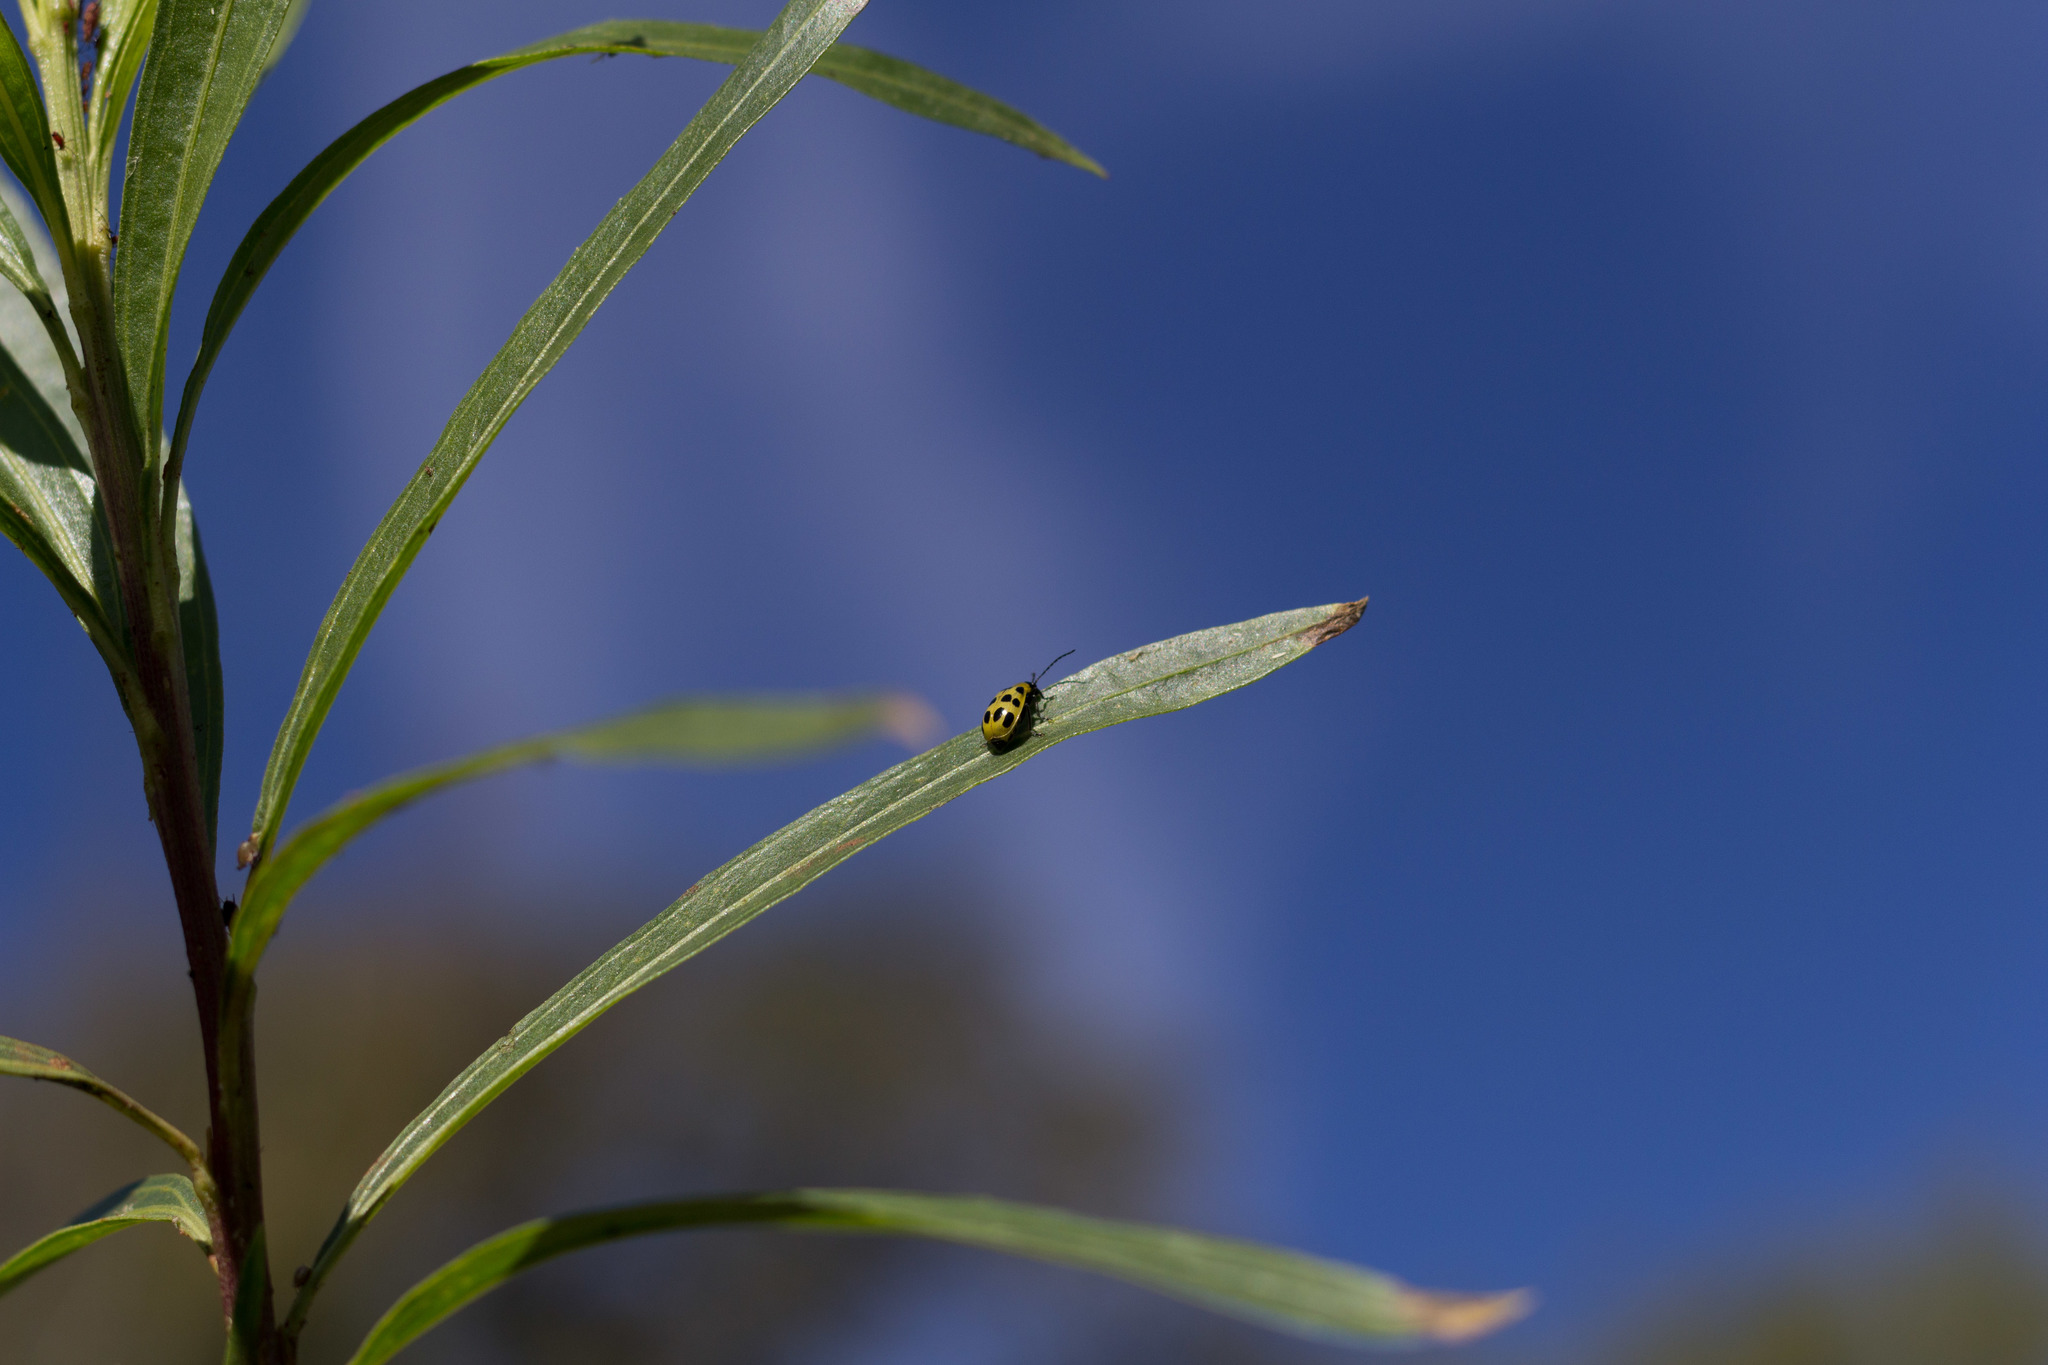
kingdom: Animalia
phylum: Arthropoda
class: Insecta
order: Coleoptera
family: Chrysomelidae
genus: Diabrotica
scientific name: Diabrotica undecimpunctata
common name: Spotted cucumber beetle
